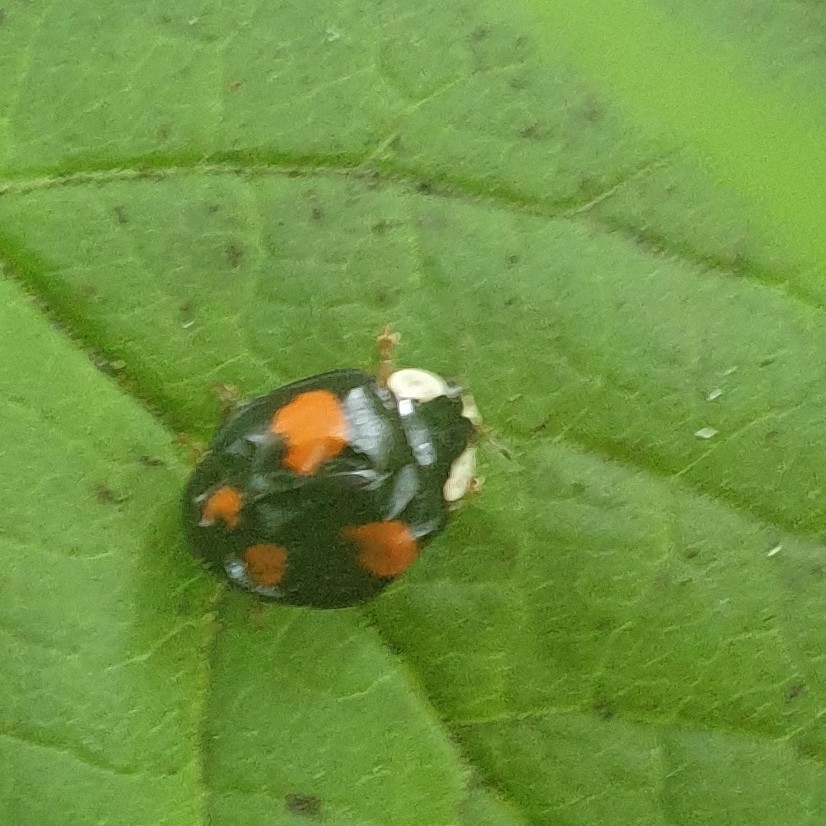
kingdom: Animalia
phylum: Arthropoda
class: Insecta
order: Coleoptera
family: Coccinellidae
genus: Harmonia
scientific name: Harmonia axyridis
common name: Harlequin ladybird
